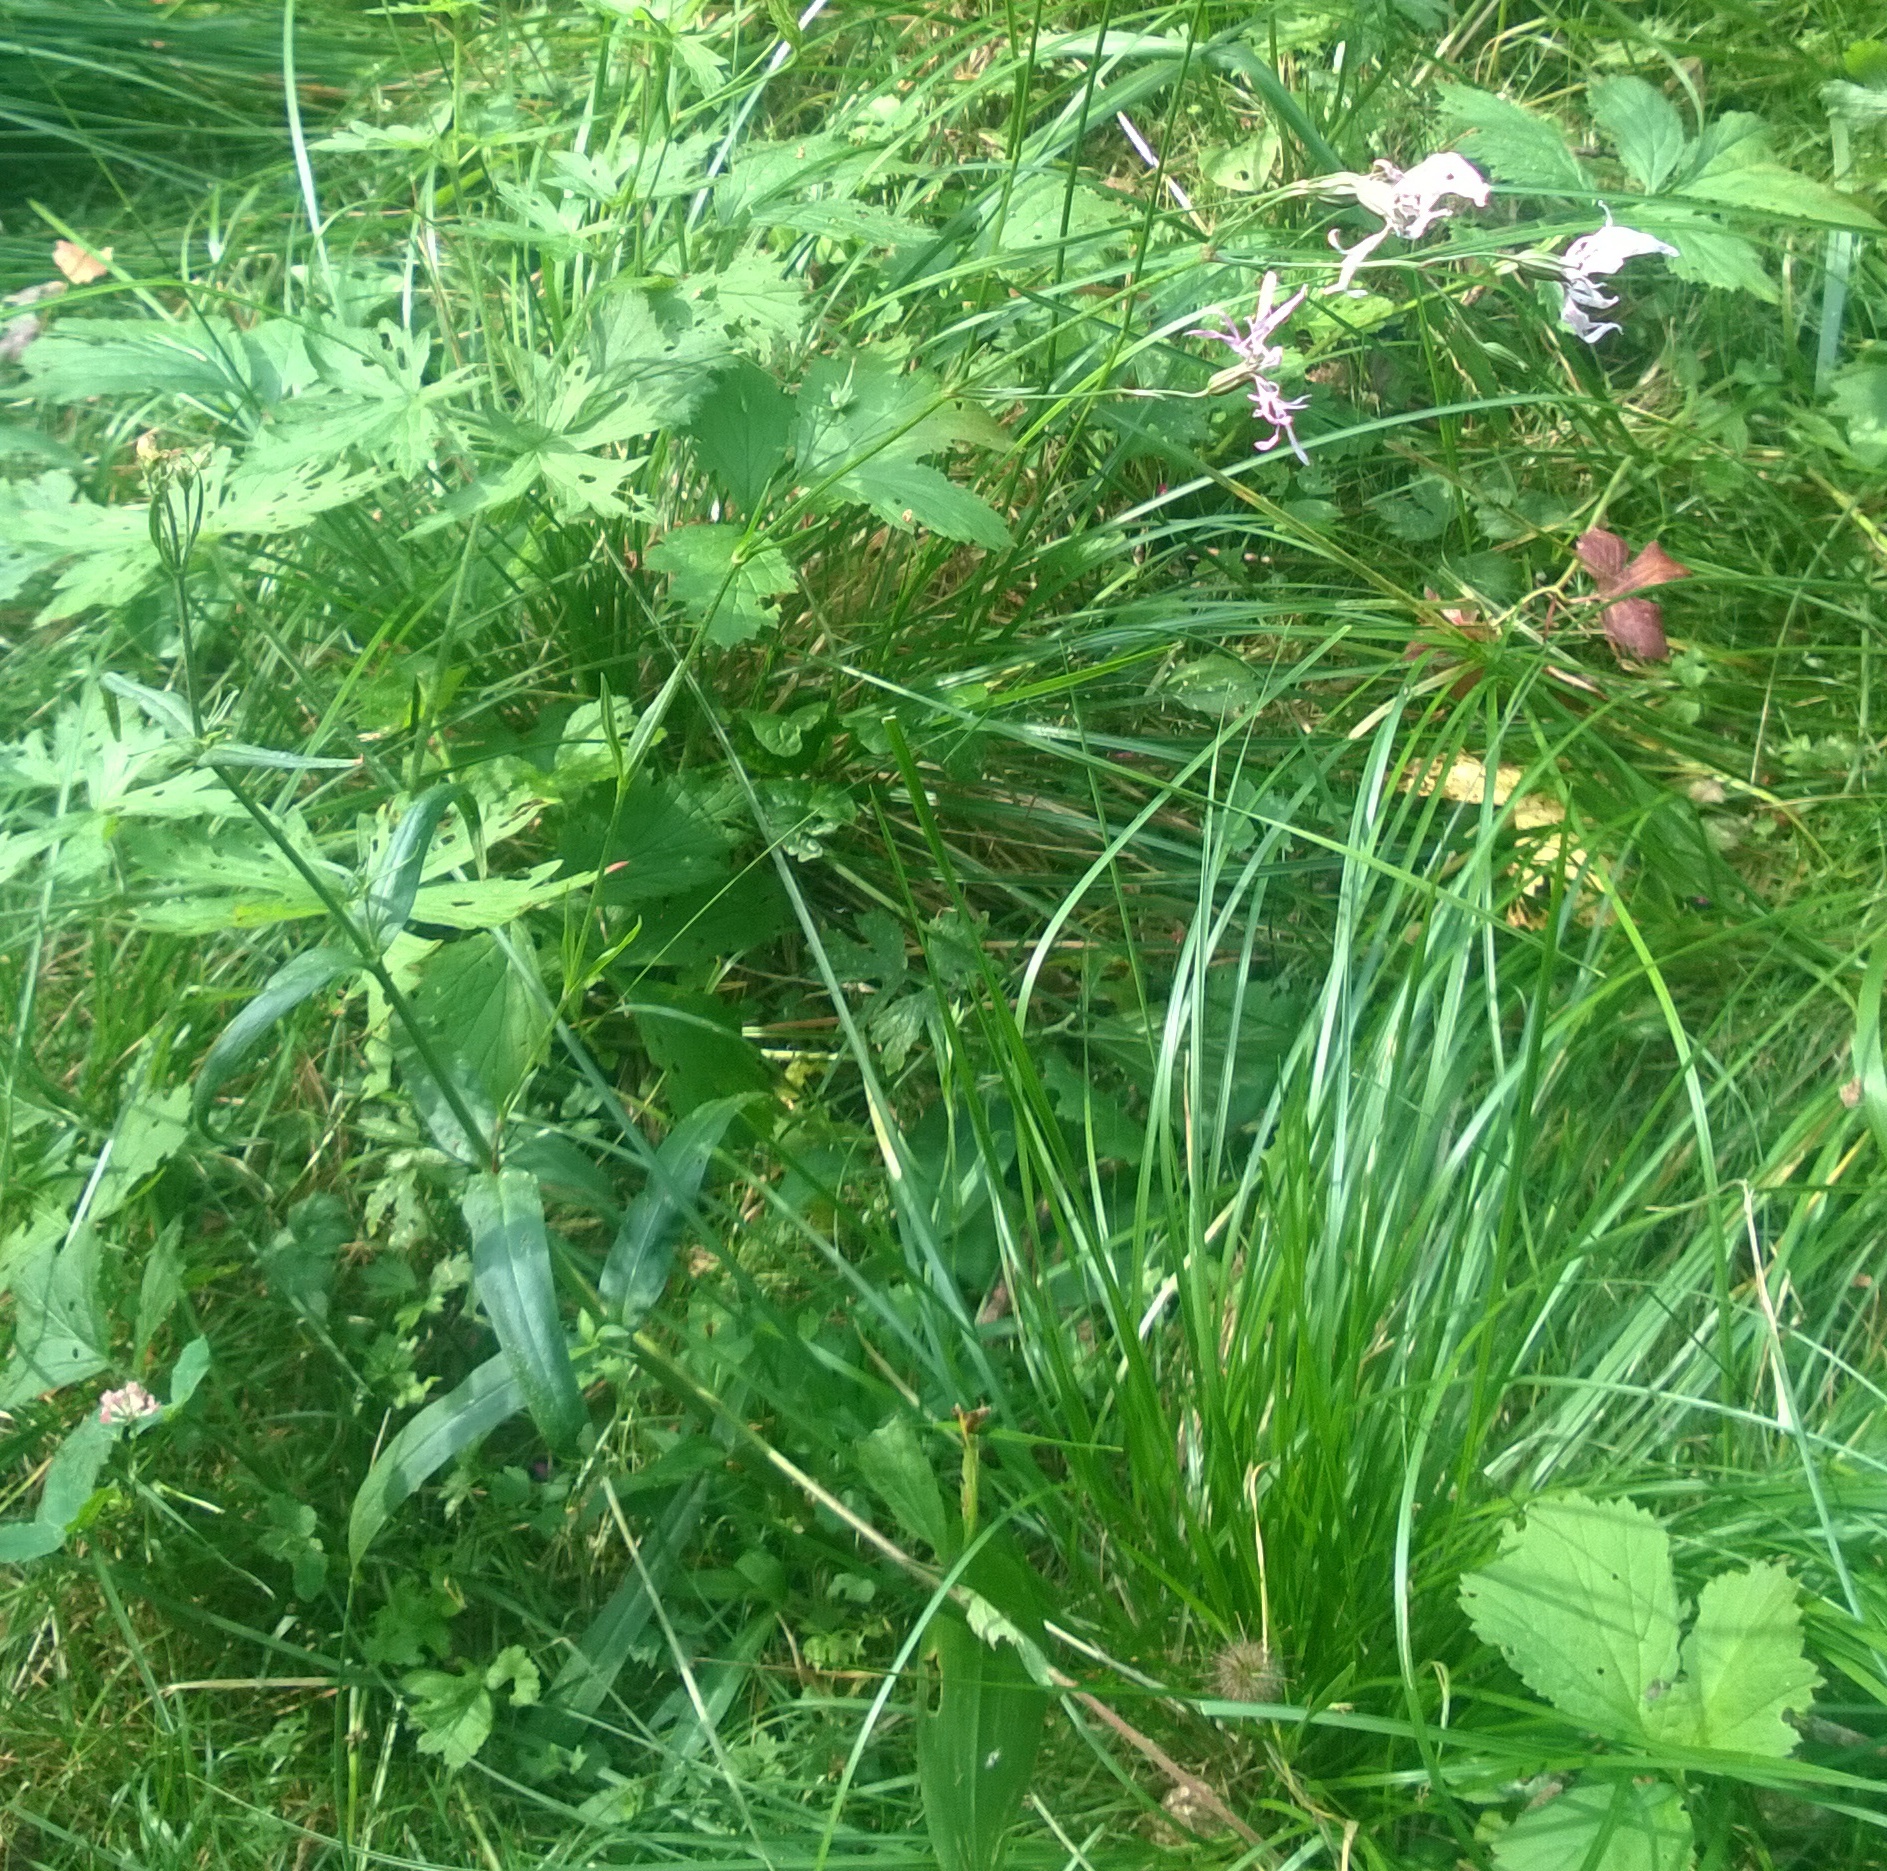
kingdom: Plantae
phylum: Tracheophyta
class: Magnoliopsida
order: Caryophyllales
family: Caryophyllaceae
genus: Silene
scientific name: Silene flos-cuculi
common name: Ragged-robin
